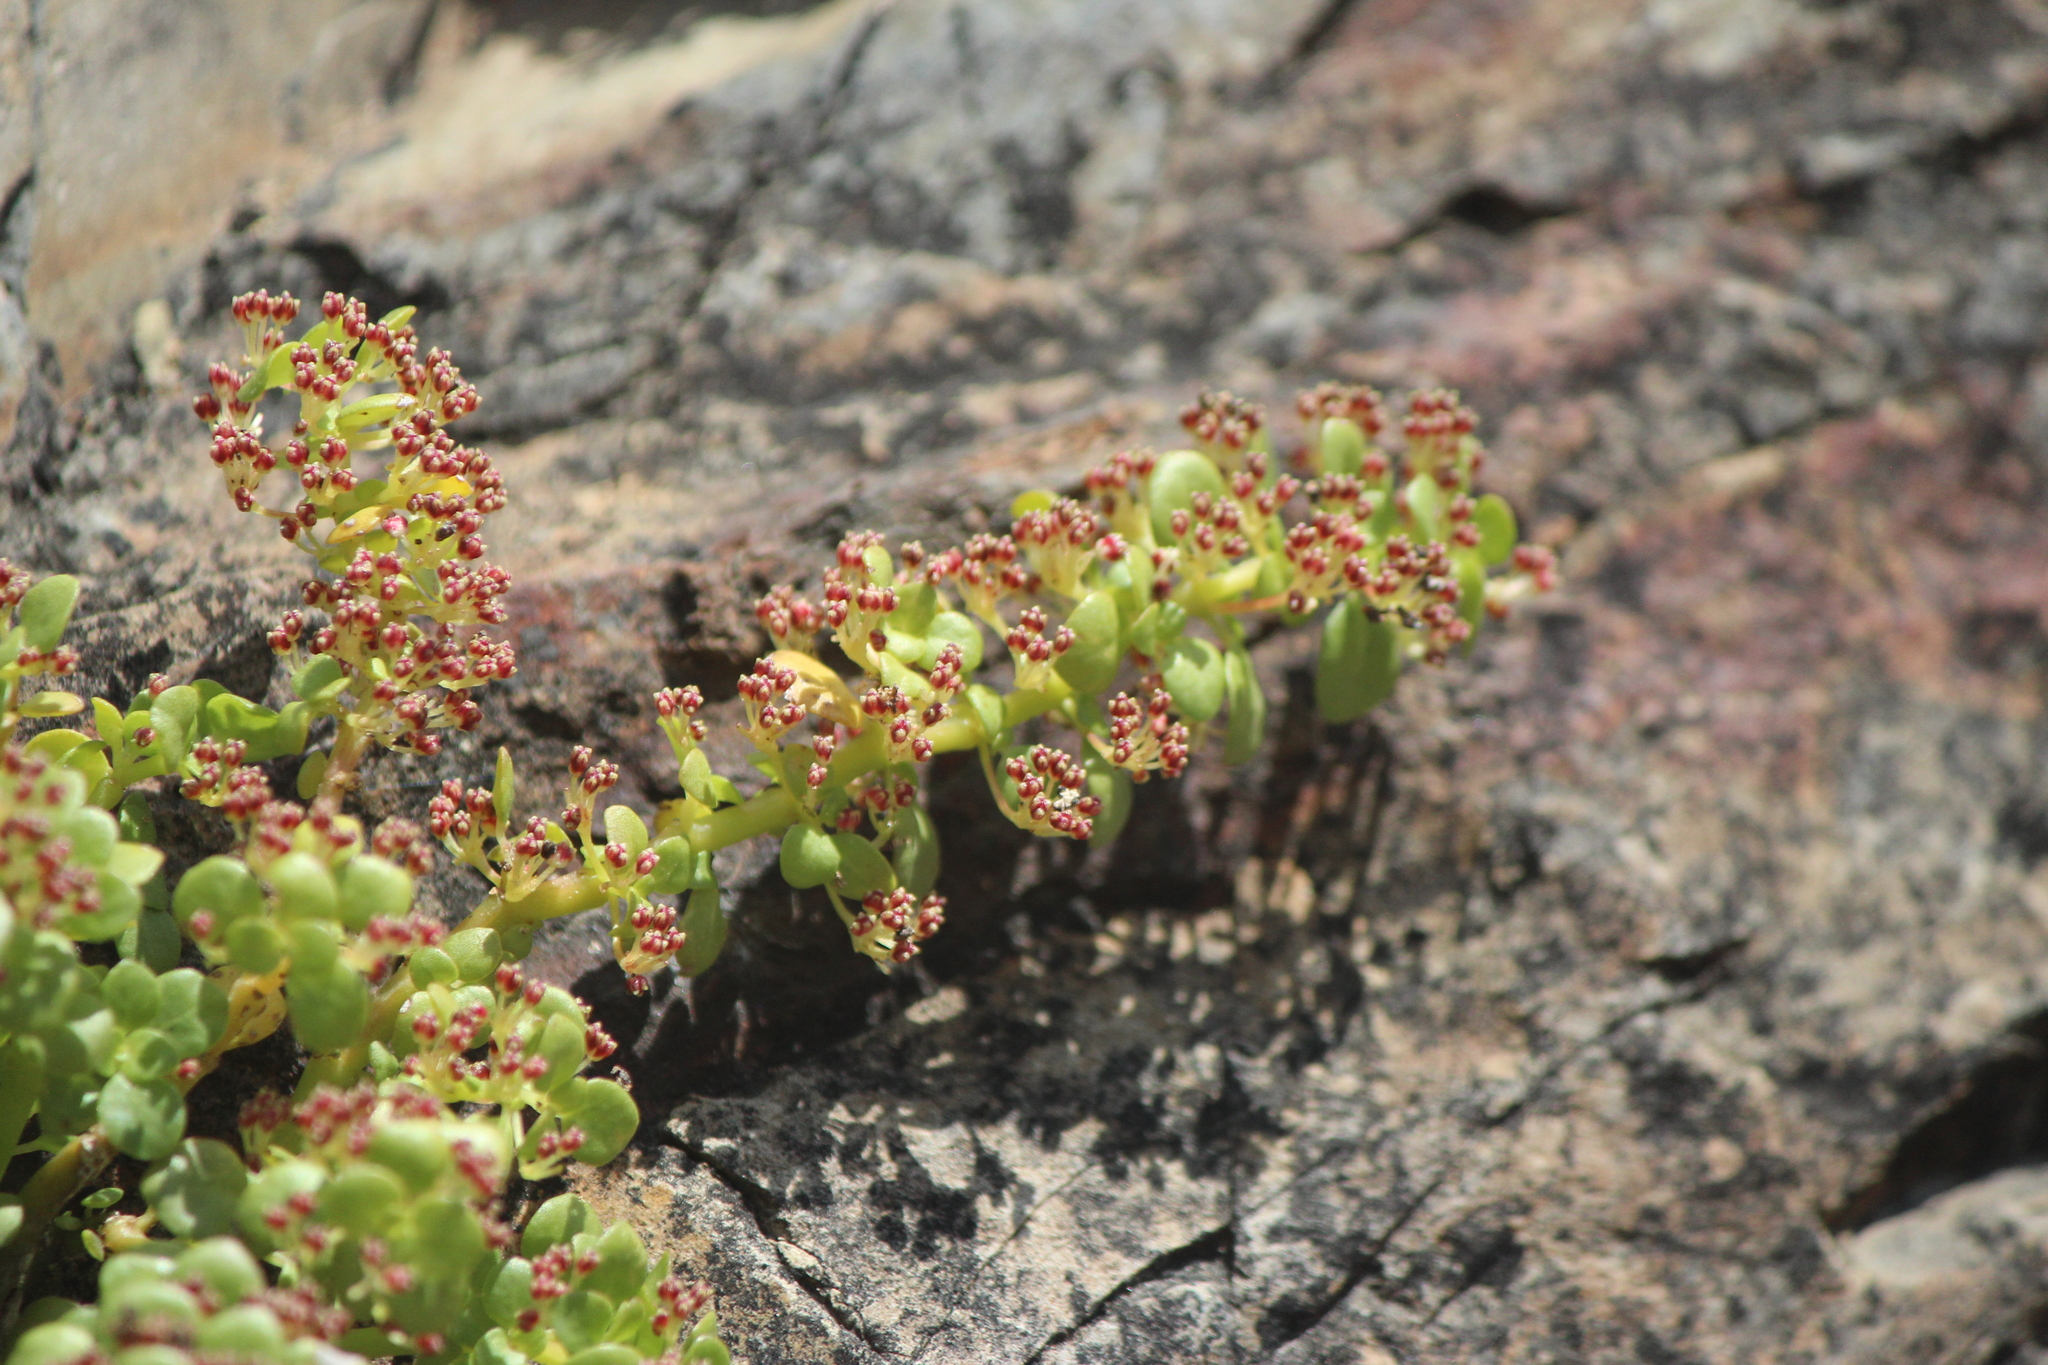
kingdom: Plantae
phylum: Tracheophyta
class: Magnoliopsida
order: Rosales
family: Urticaceae
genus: Pilea
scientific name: Pilea microphylla
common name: Artillery-plant
